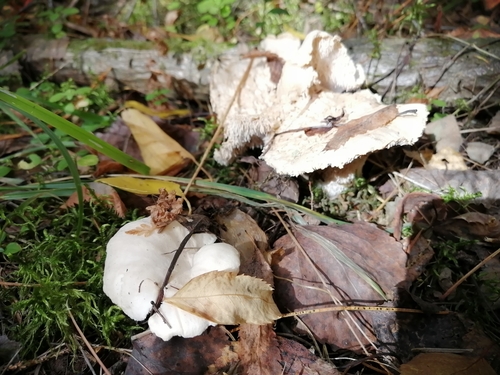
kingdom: Fungi
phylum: Basidiomycota
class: Agaricomycetes
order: Cantharellales
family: Hydnaceae
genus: Hydnum
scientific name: Hydnum repandum
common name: Wood hedgehog
